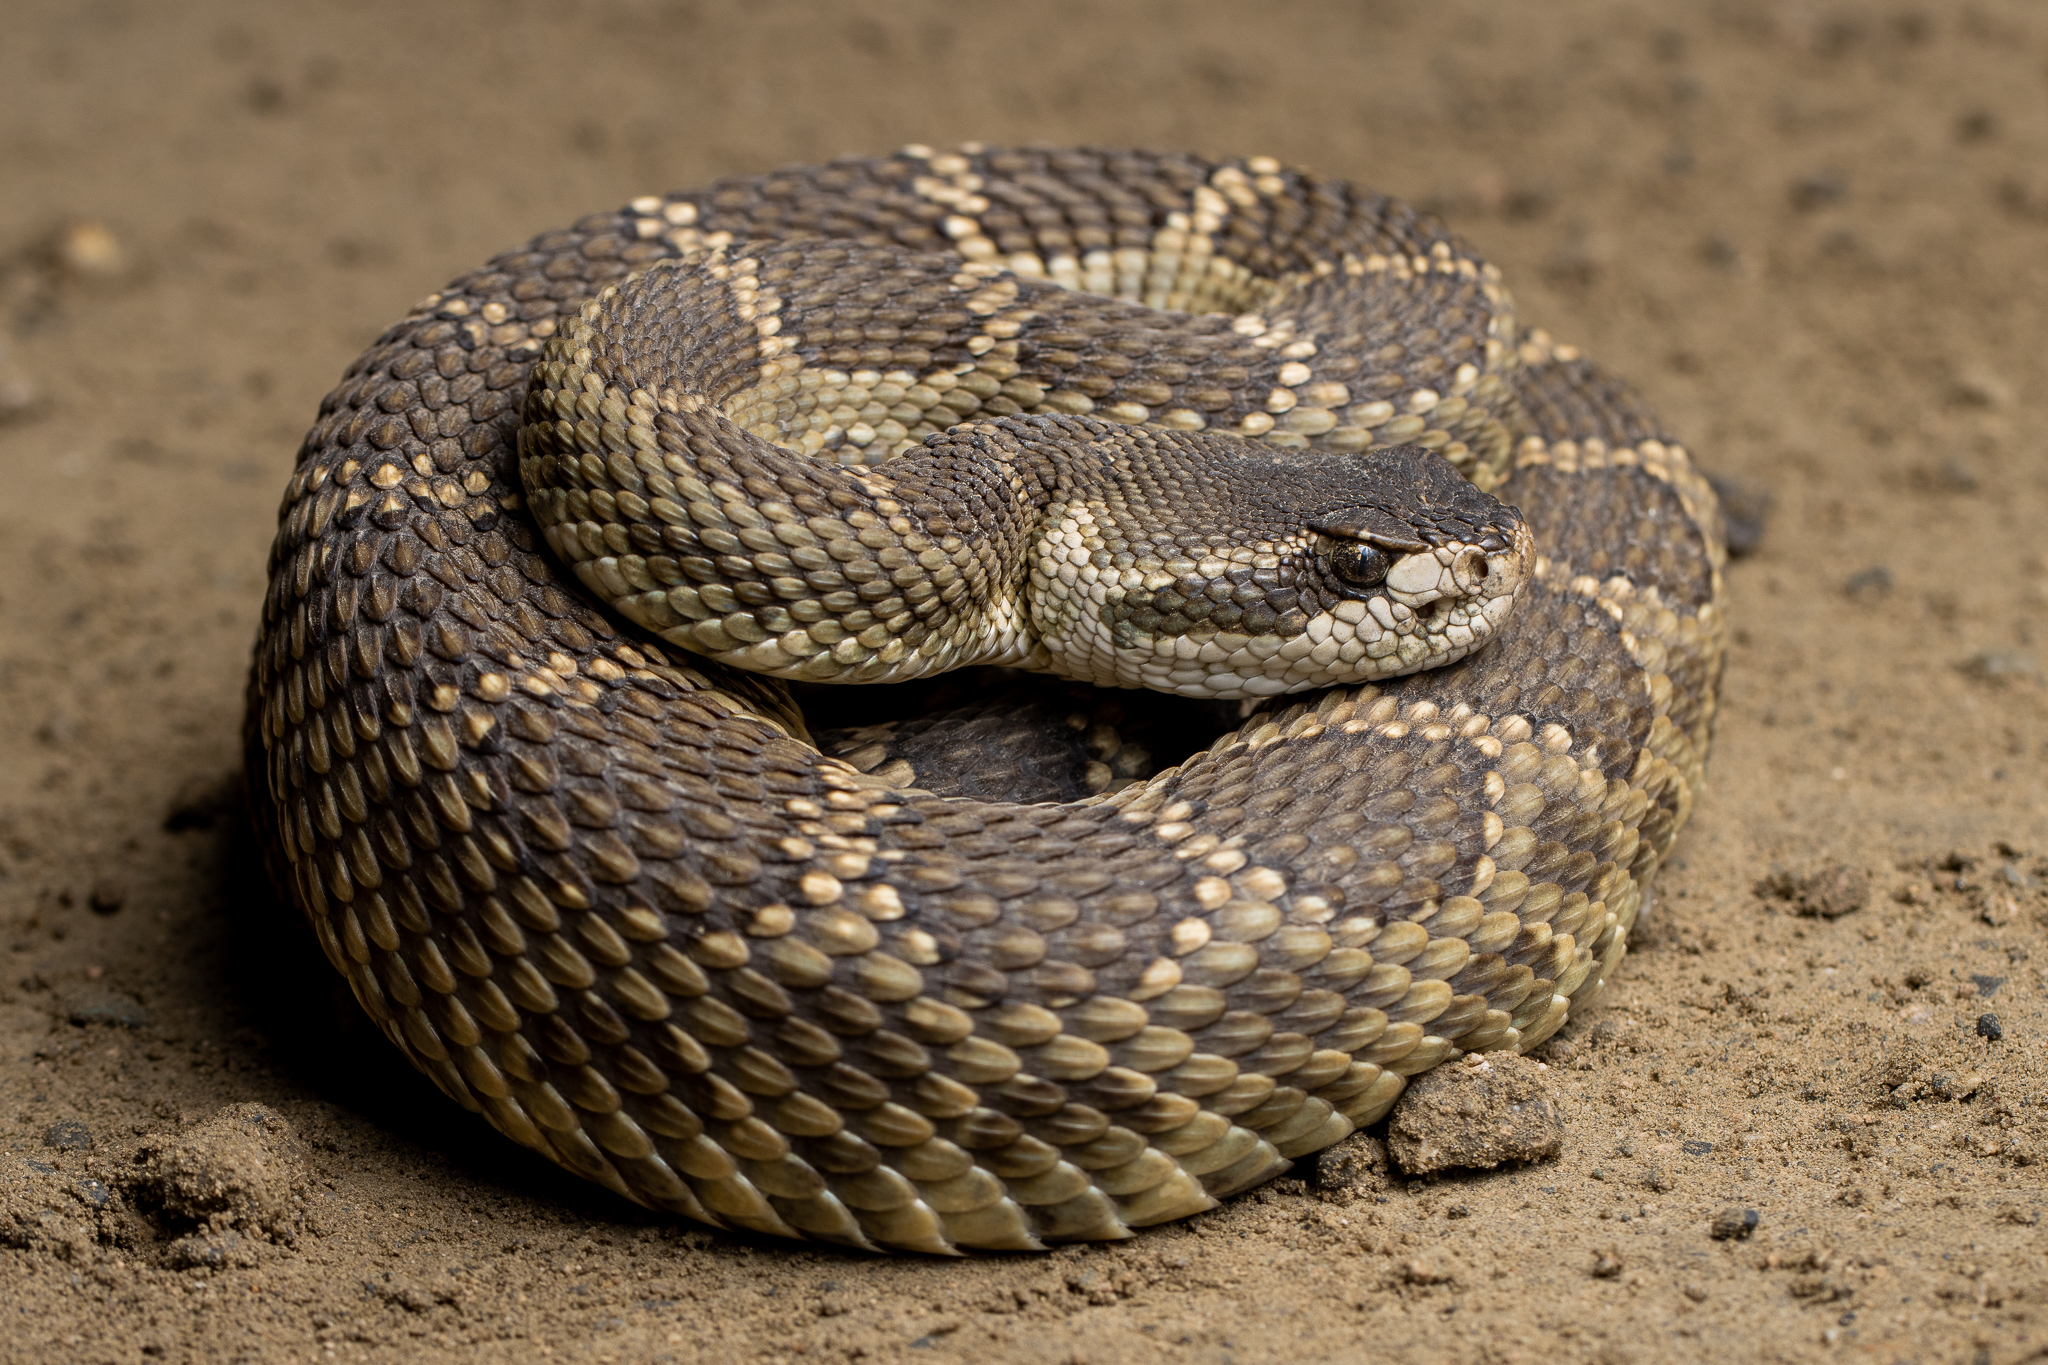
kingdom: Animalia
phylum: Chordata
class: Squamata
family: Viperidae
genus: Crotalus
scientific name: Crotalus oreganus
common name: Abyssus
